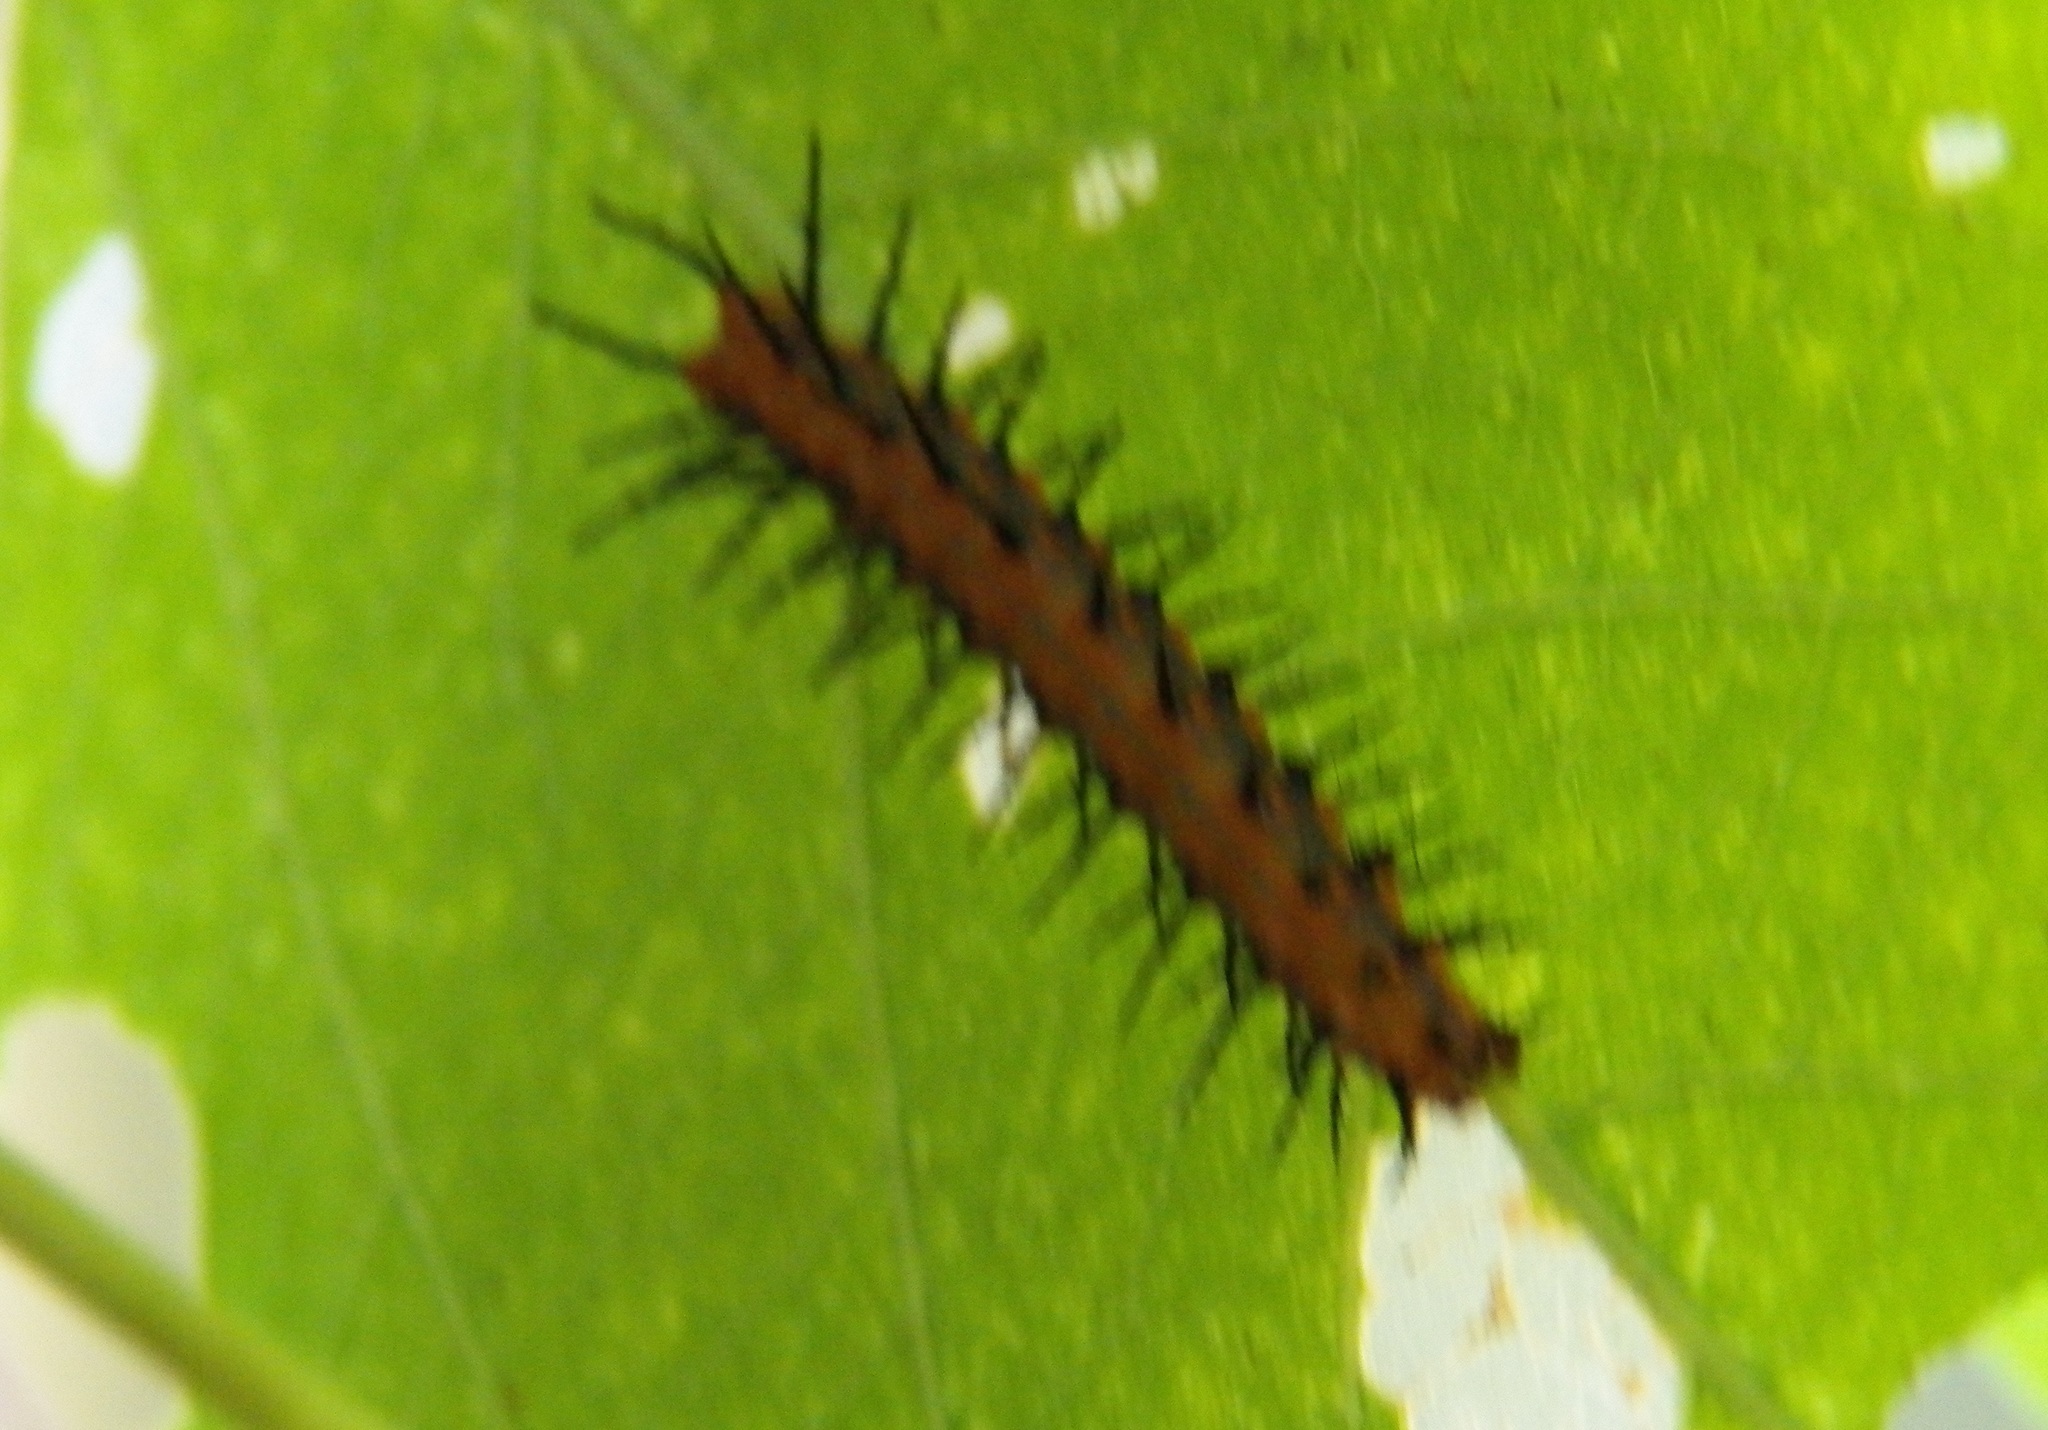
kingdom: Animalia
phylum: Arthropoda
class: Insecta
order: Lepidoptera
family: Nymphalidae
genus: Dione
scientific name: Dione vanillae
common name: Gulf fritillary
